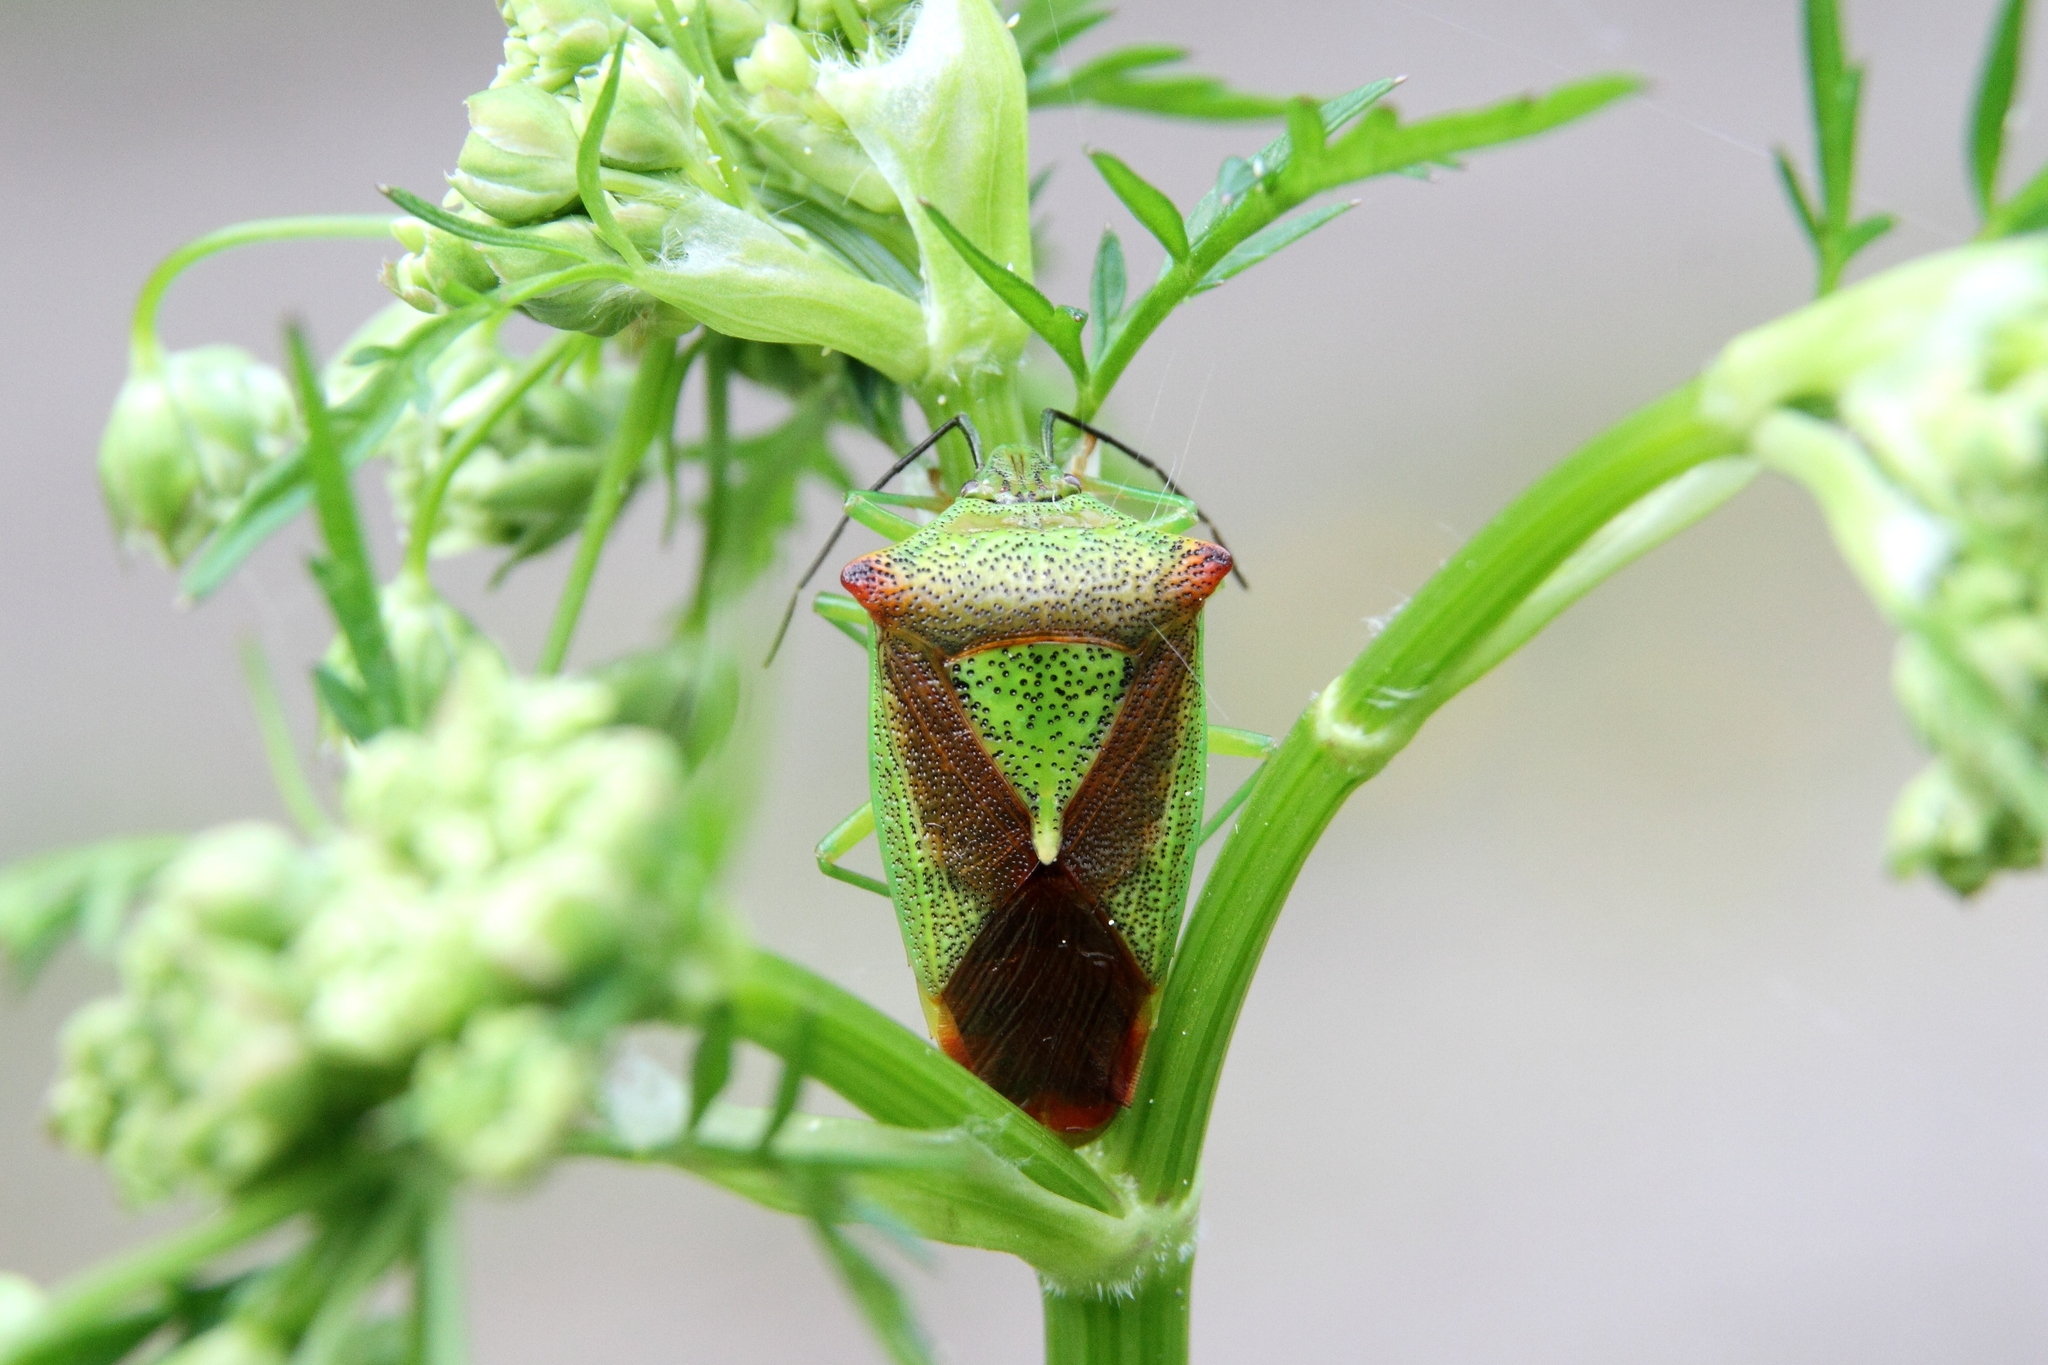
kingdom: Animalia
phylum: Arthropoda
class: Insecta
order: Hemiptera
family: Acanthosomatidae
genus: Acanthosoma
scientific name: Acanthosoma haemorrhoidale
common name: Hawthorn shieldbug
